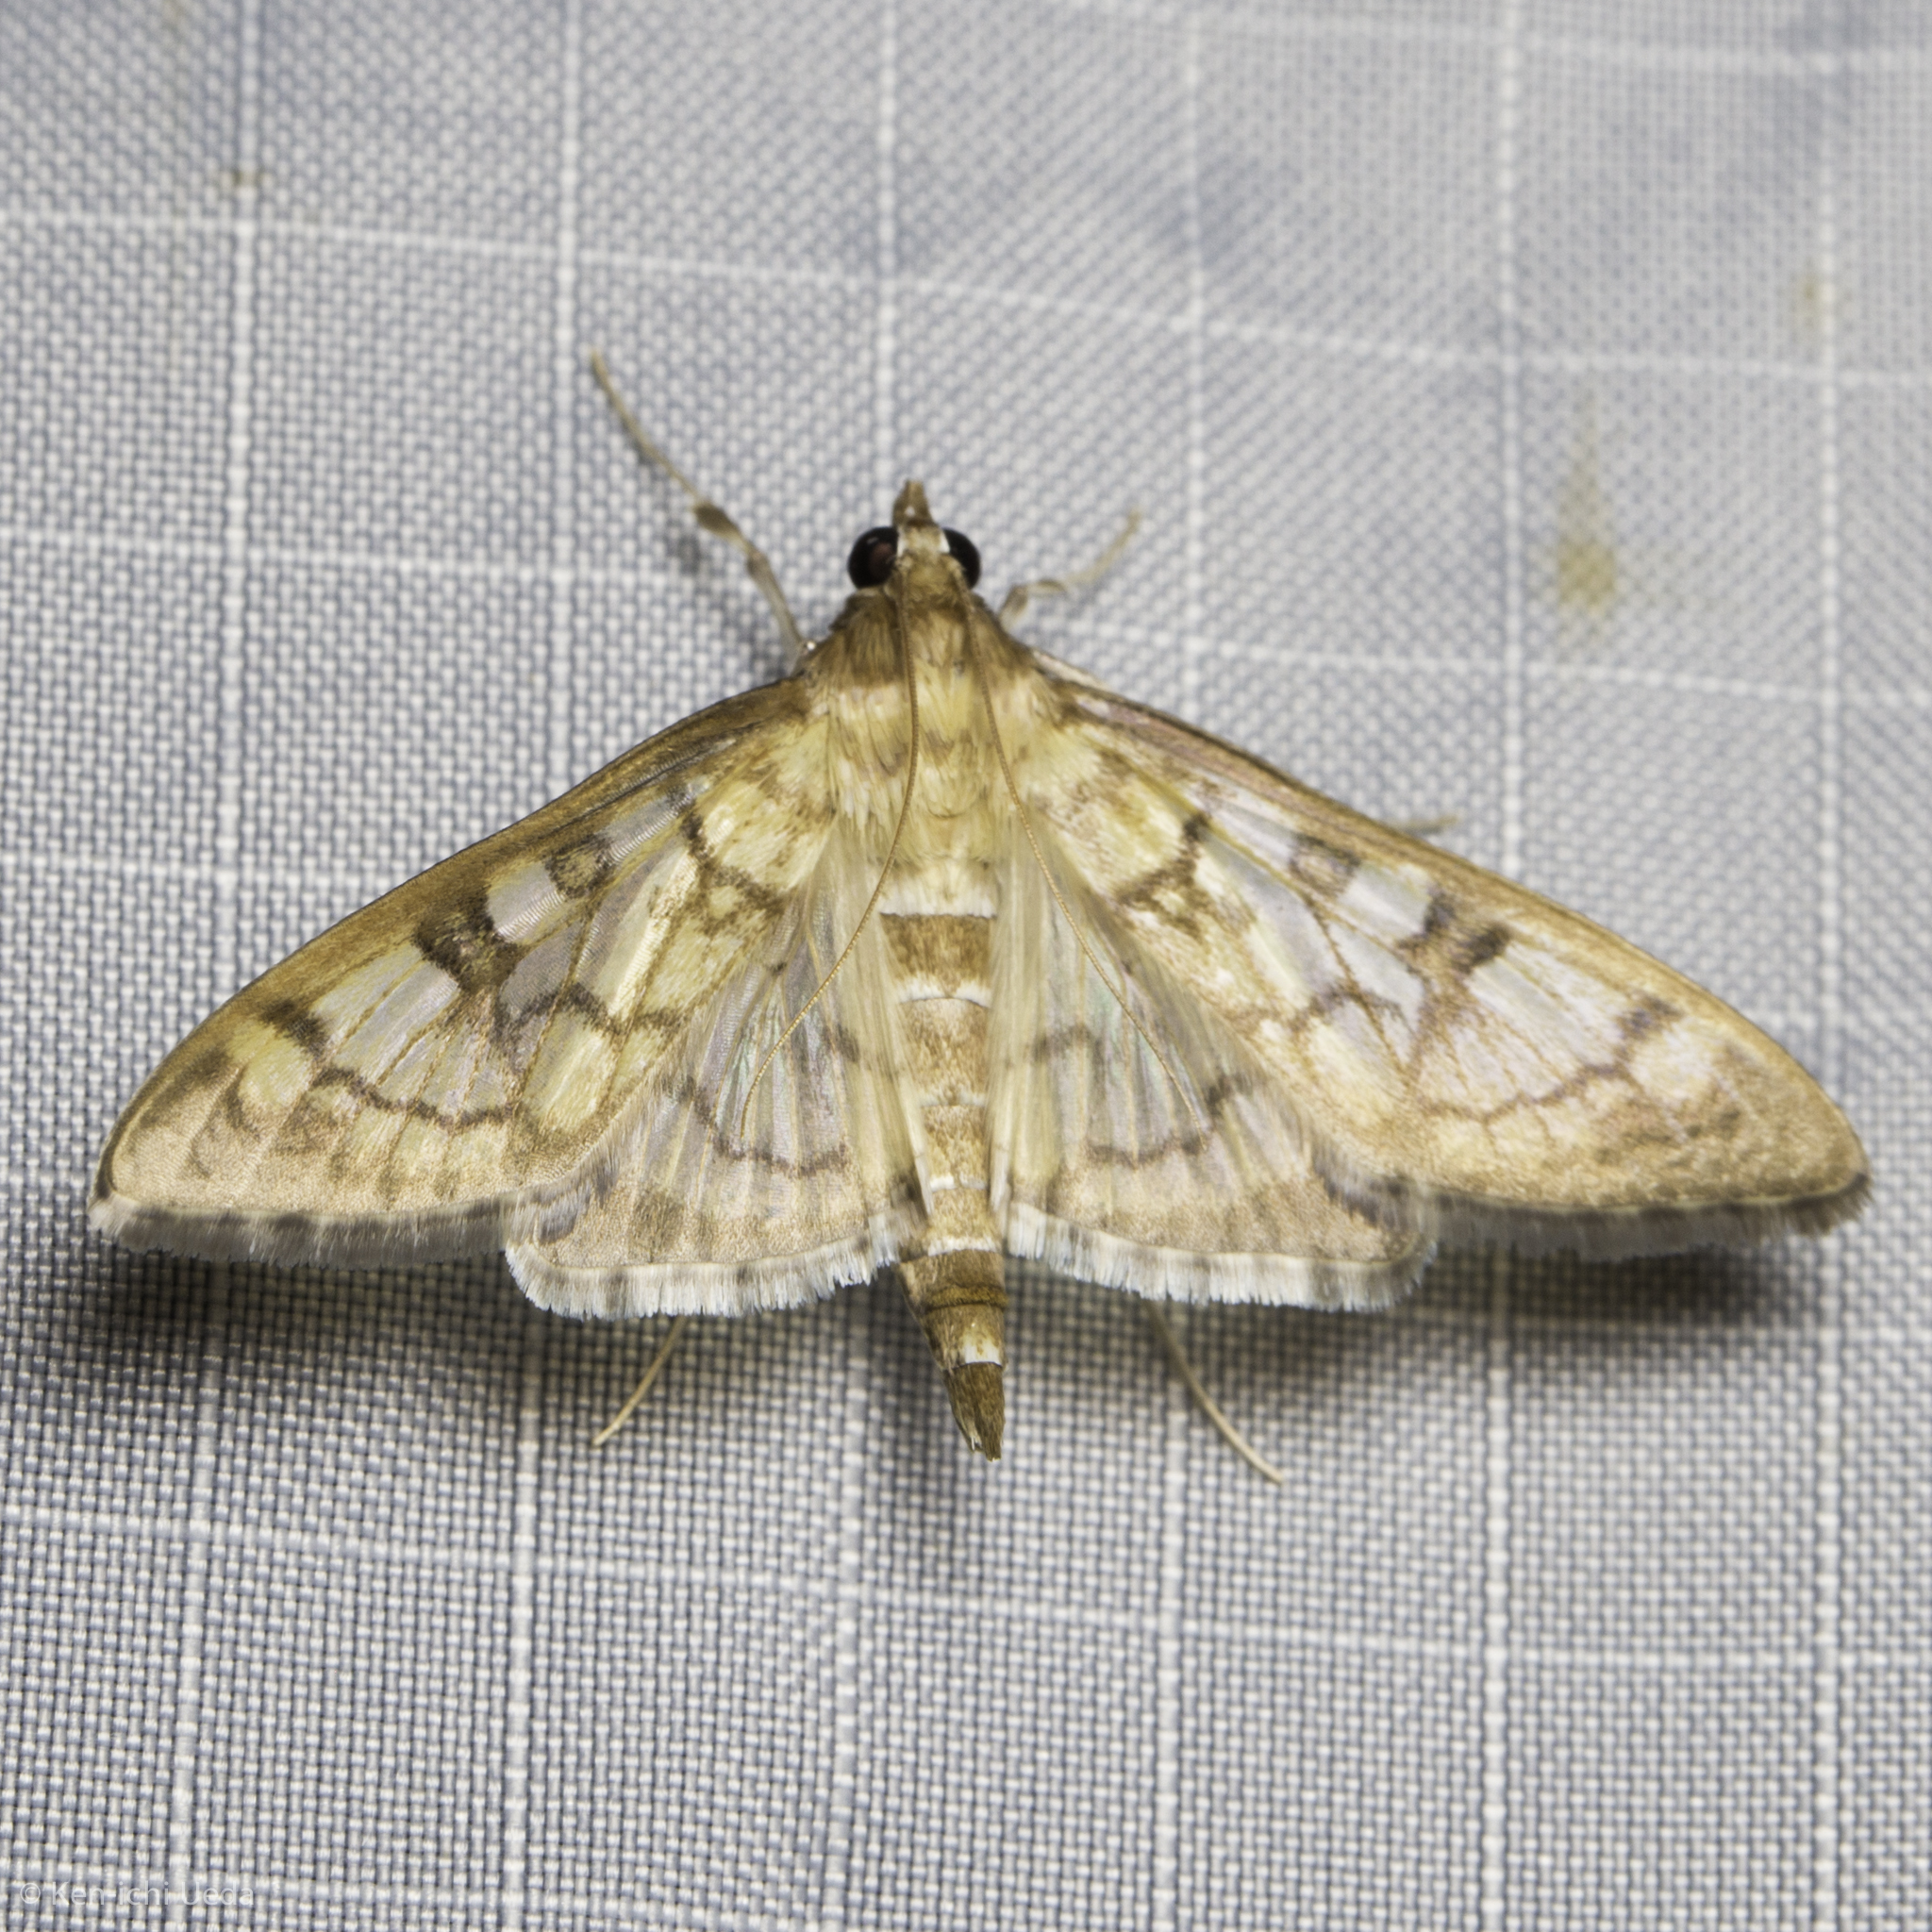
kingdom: Animalia
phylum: Arthropoda
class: Insecta
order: Lepidoptera
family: Crambidae
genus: Mimorista
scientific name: Mimorista subcostalis
